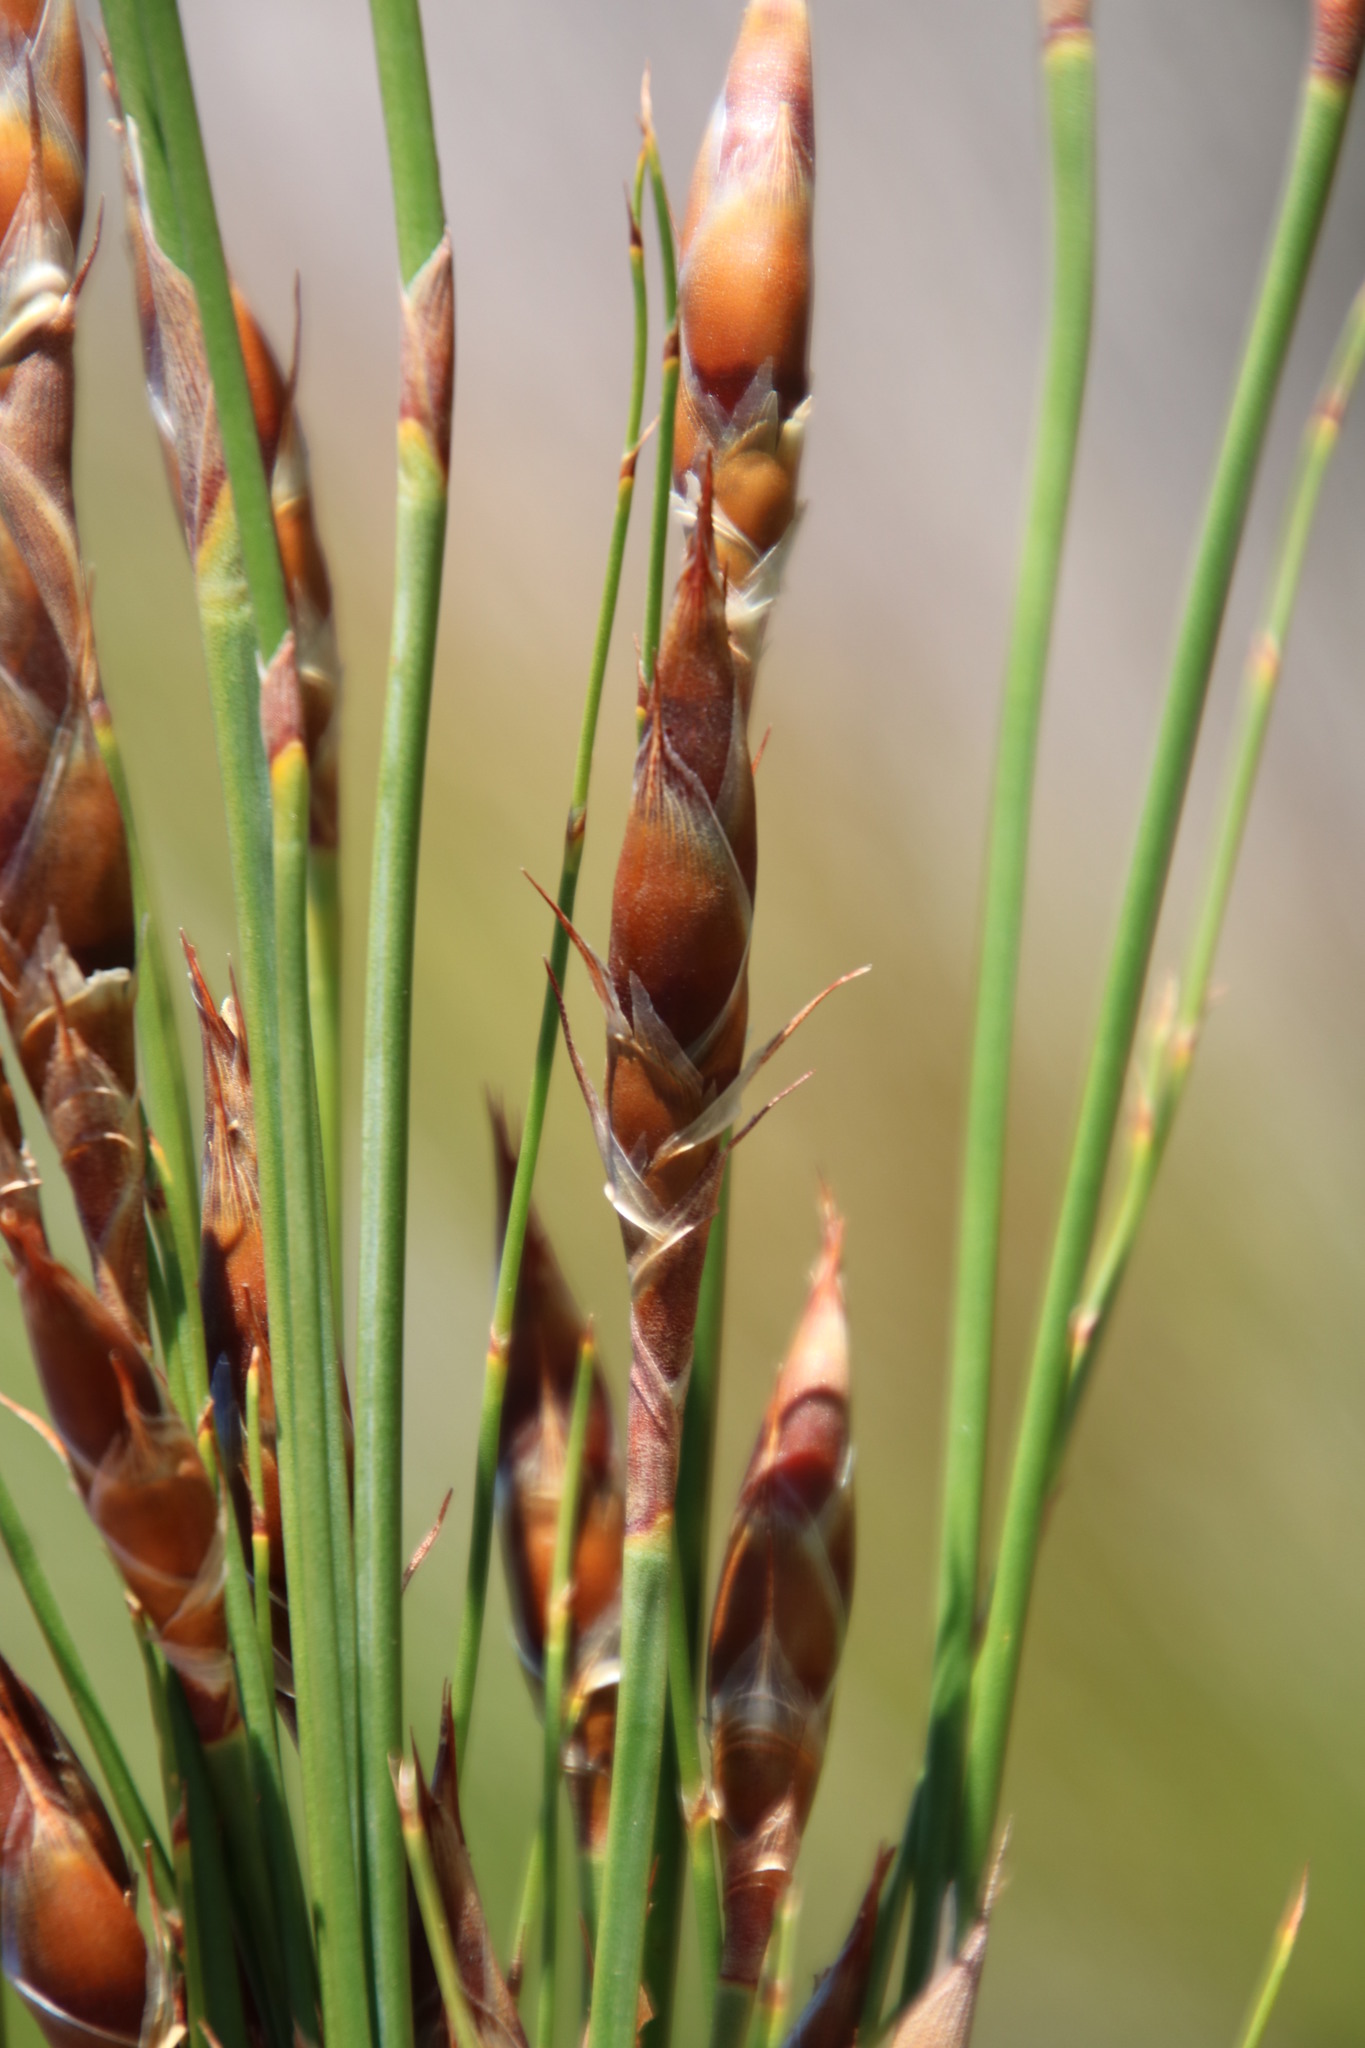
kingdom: Plantae
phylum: Tracheophyta
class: Liliopsida
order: Poales
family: Restionaceae
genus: Cannomois
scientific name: Cannomois robusta
